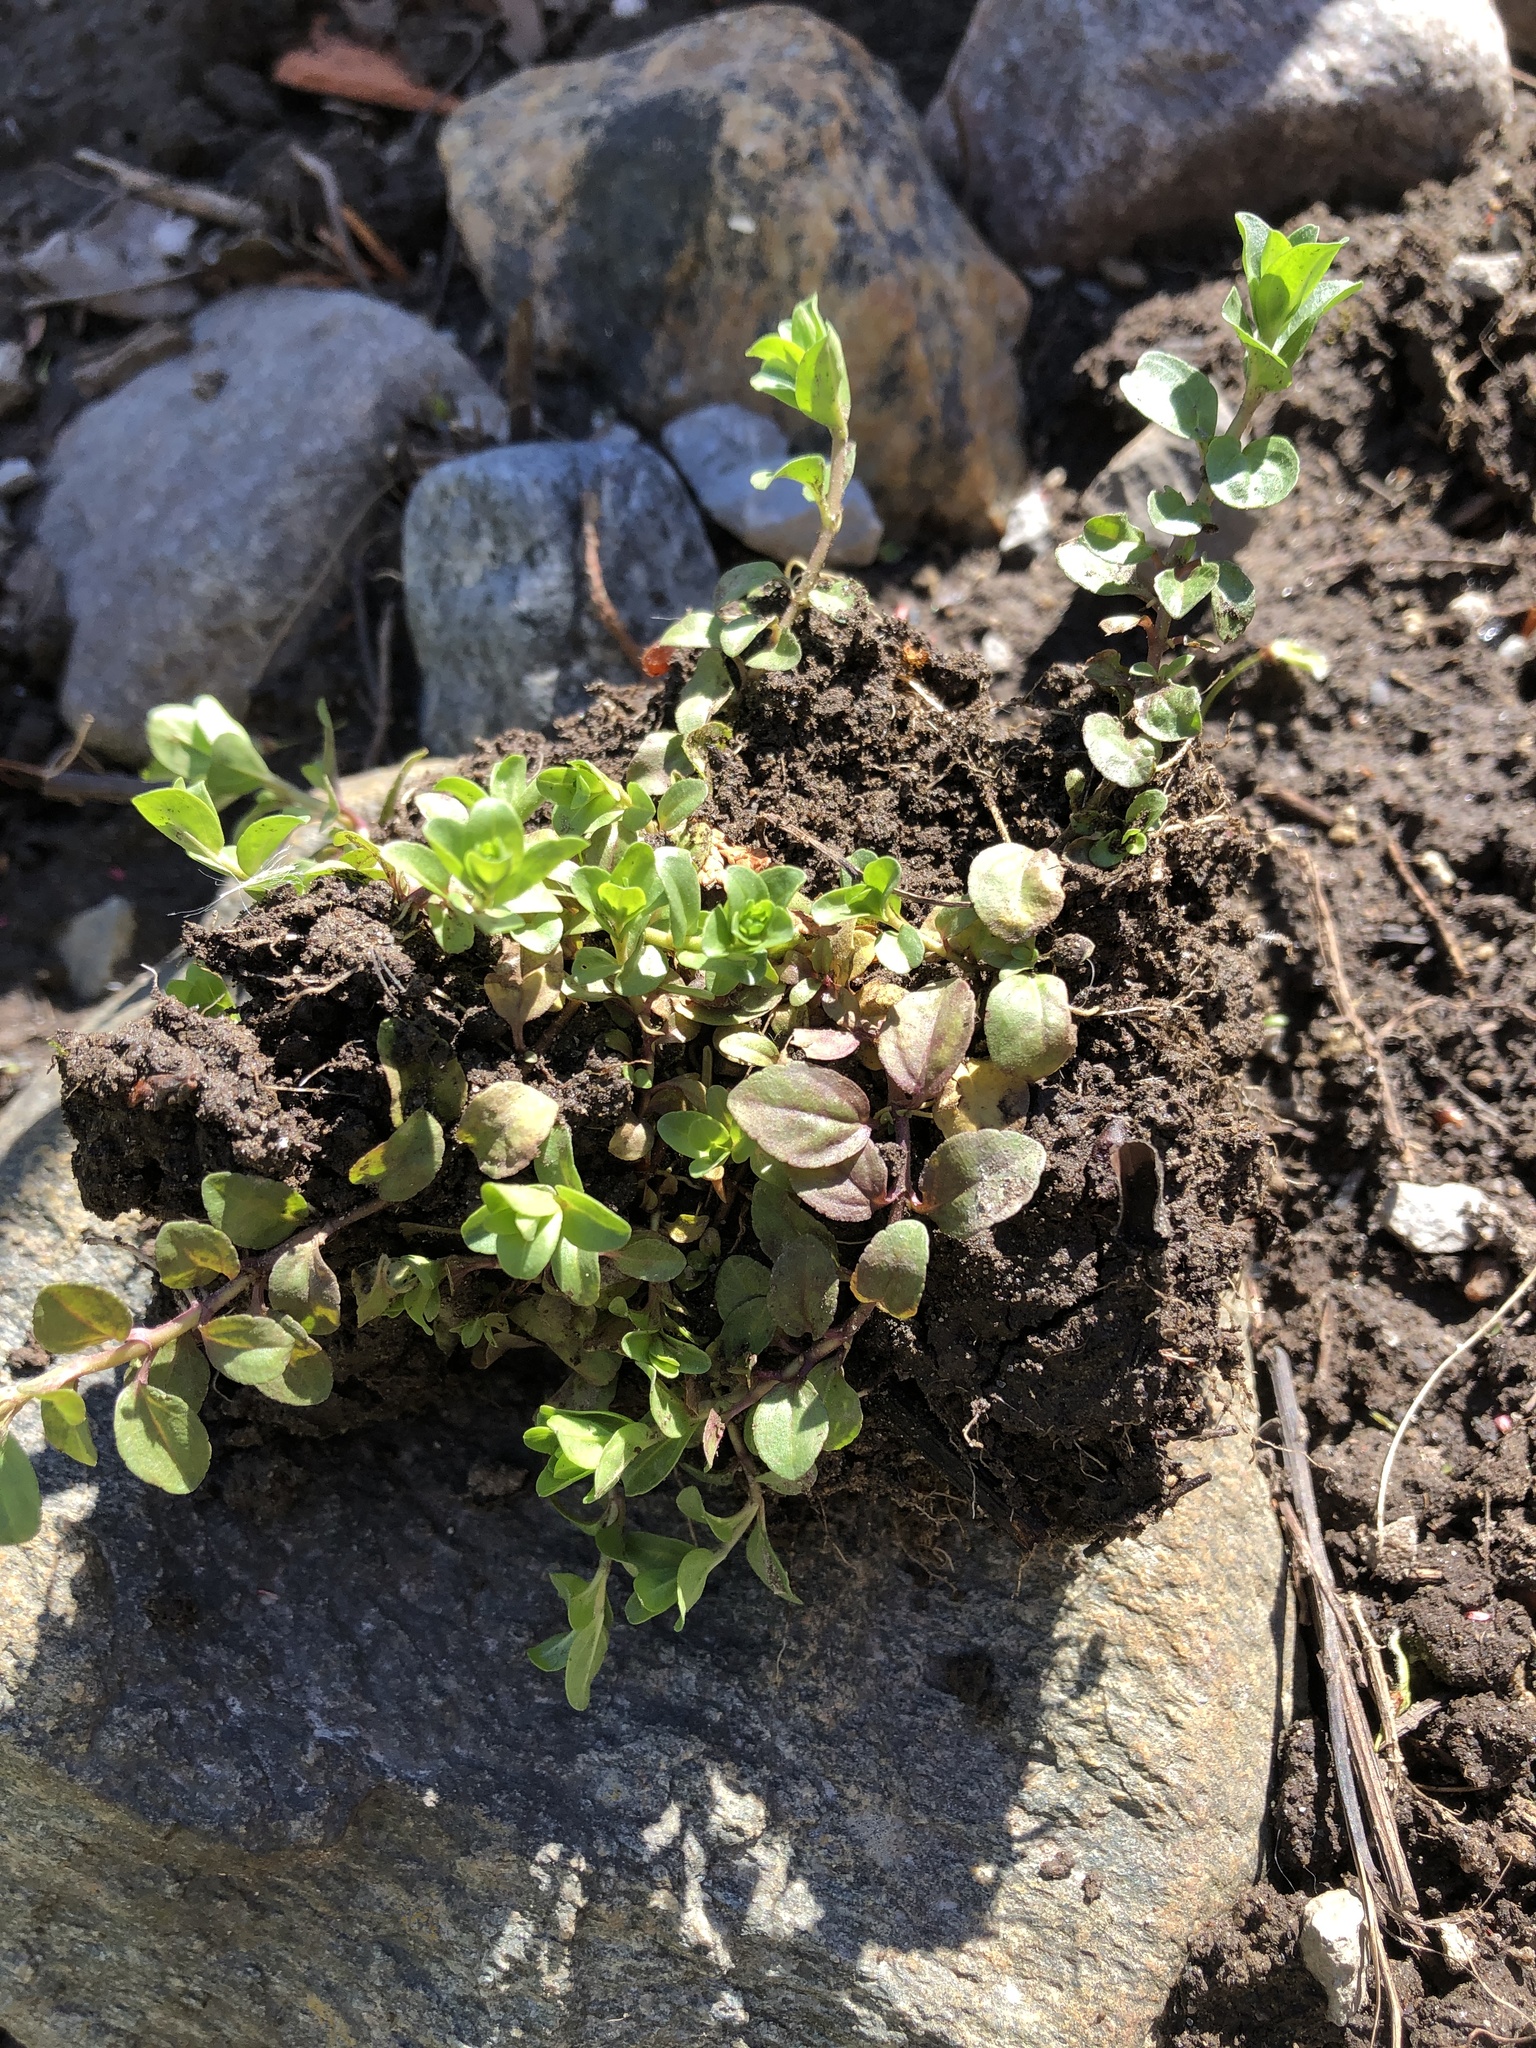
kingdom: Plantae
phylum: Tracheophyta
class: Magnoliopsida
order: Lamiales
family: Plantaginaceae
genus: Veronica
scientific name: Veronica serpyllifolia
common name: Thyme-leaved speedwell
